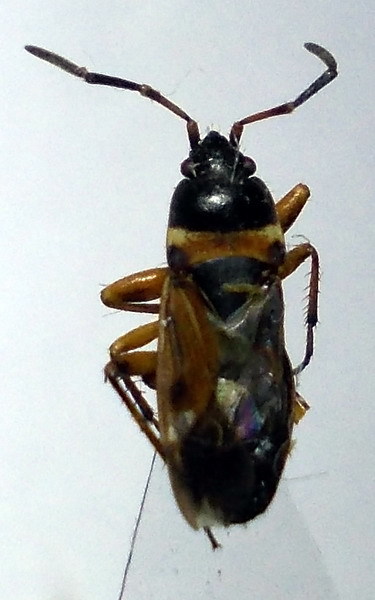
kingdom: Animalia
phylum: Arthropoda
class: Insecta
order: Hemiptera
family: Rhyparochromidae
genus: Raglius
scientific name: Raglius alboacuminatus
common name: Dirt-colored seed bug
